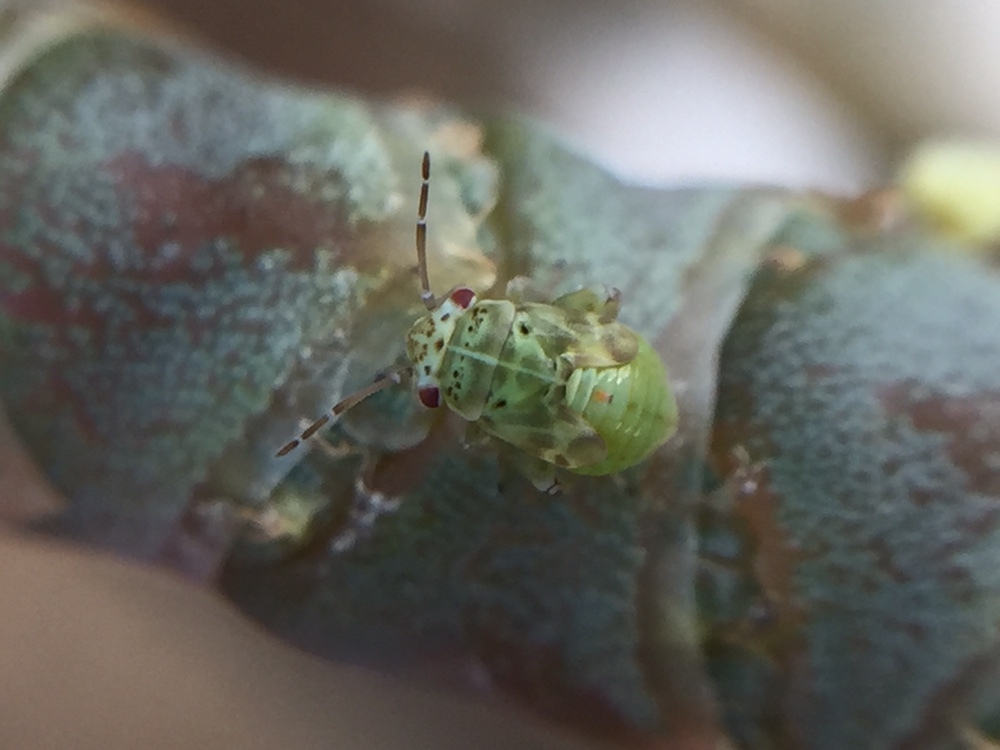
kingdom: Animalia
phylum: Arthropoda
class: Insecta
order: Hemiptera
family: Miridae
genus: Coridromius
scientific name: Coridromius chenopoderis
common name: Plant bug
